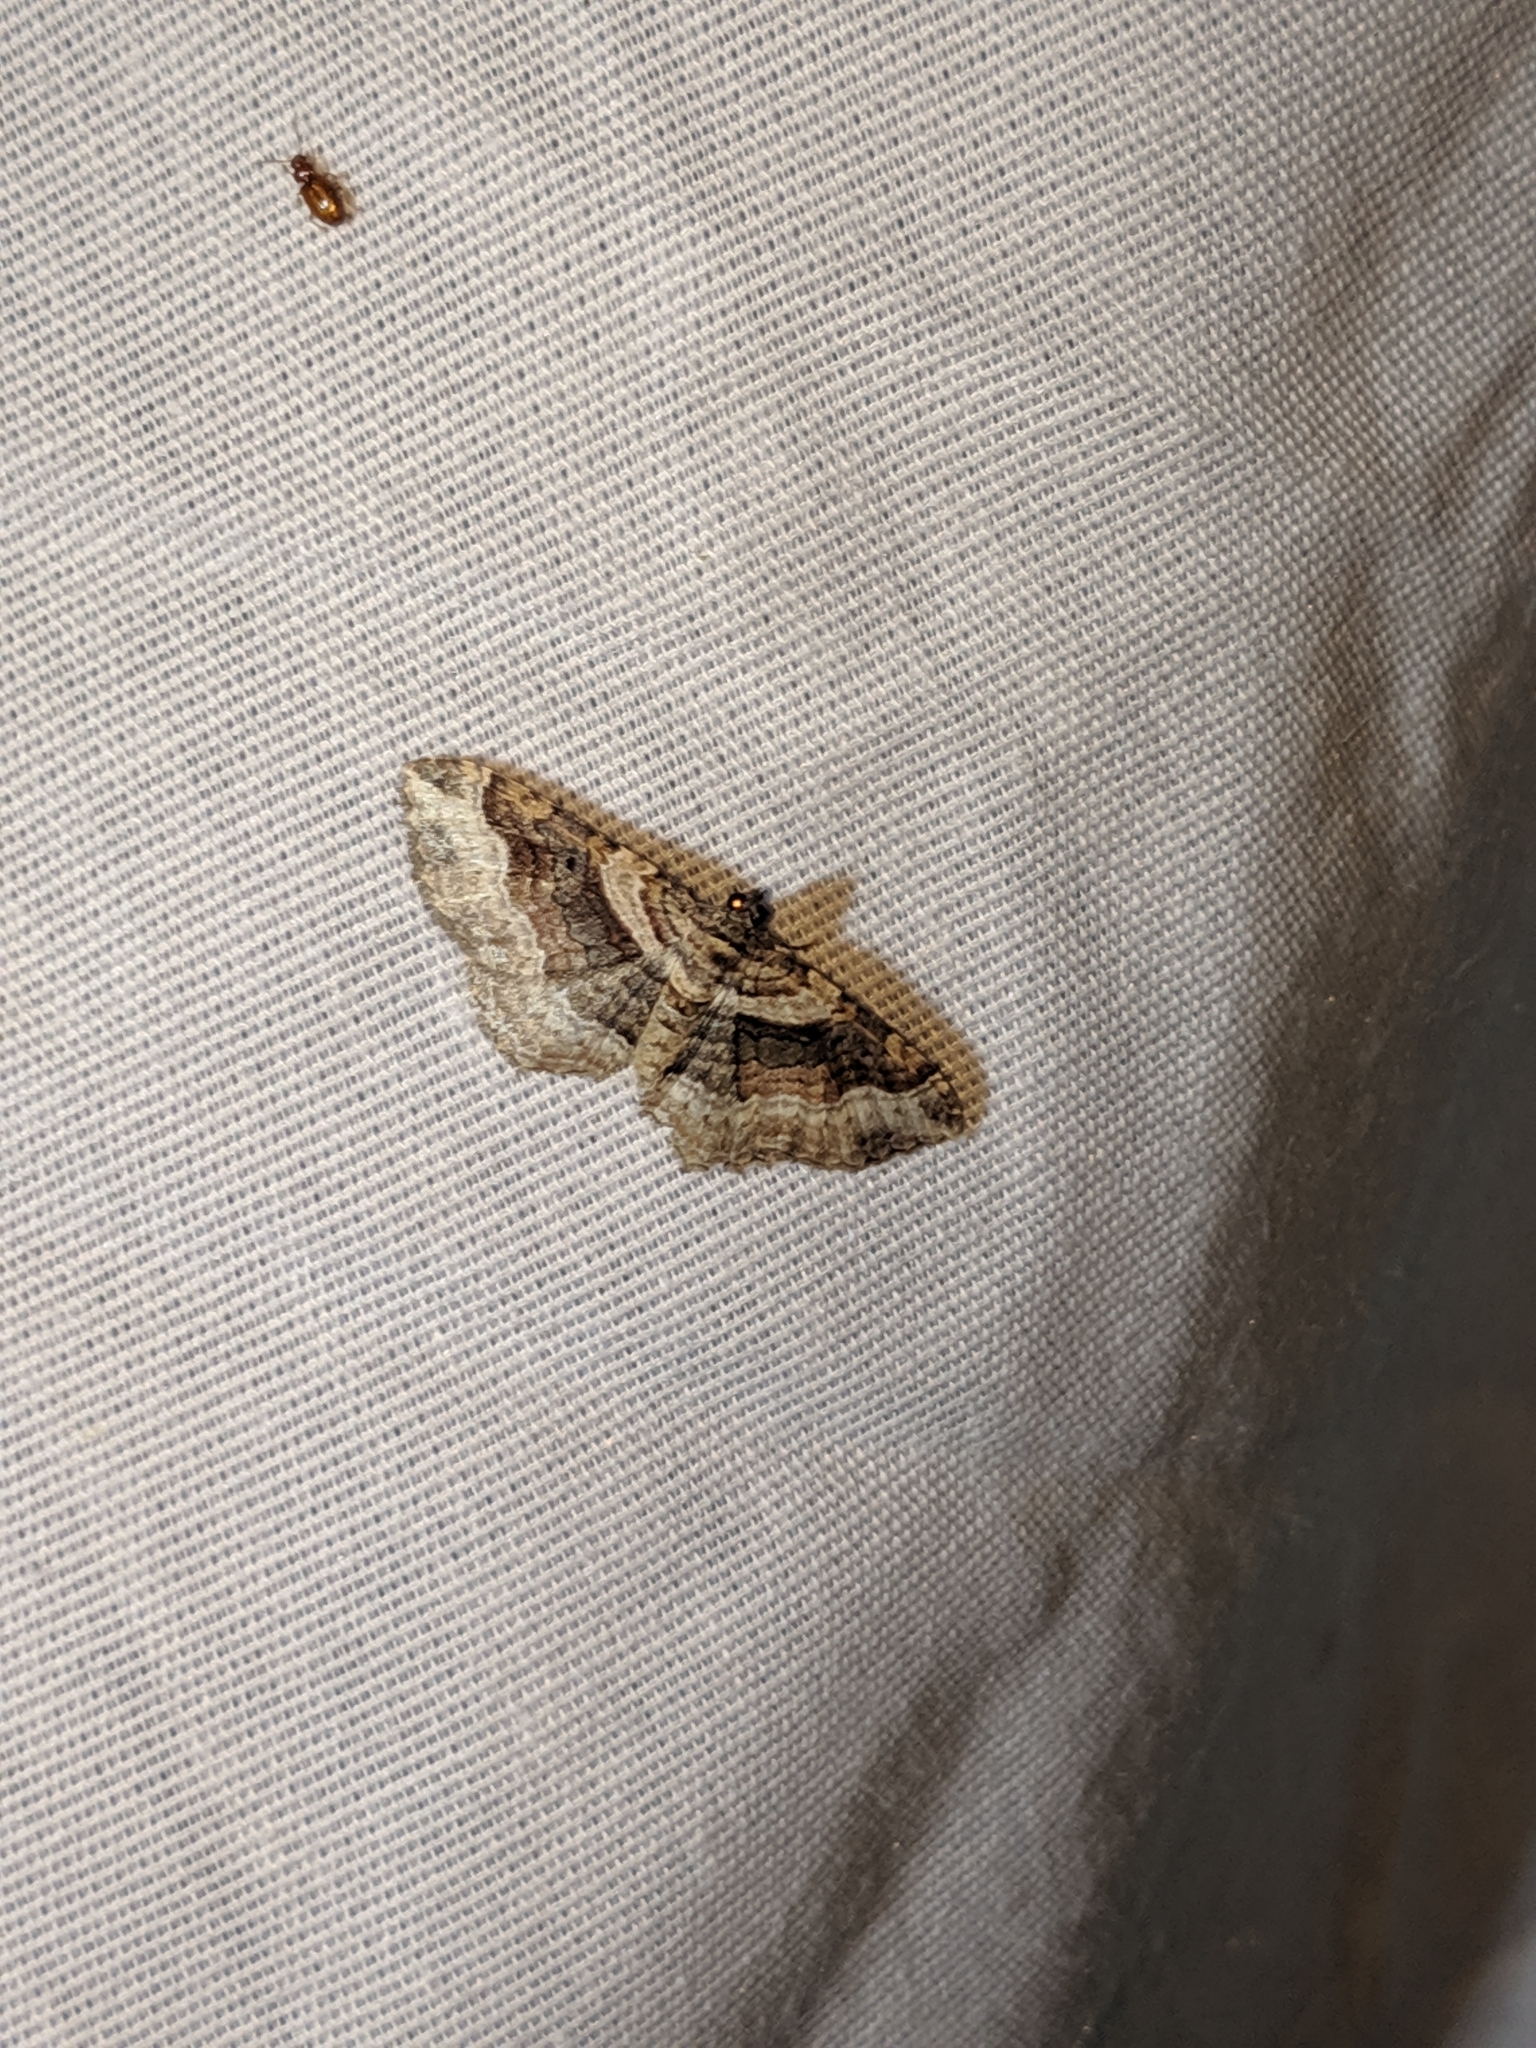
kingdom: Animalia
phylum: Arthropoda
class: Insecta
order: Lepidoptera
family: Geometridae
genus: Costaconvexa
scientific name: Costaconvexa centrostrigaria
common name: Bent-line carpet
